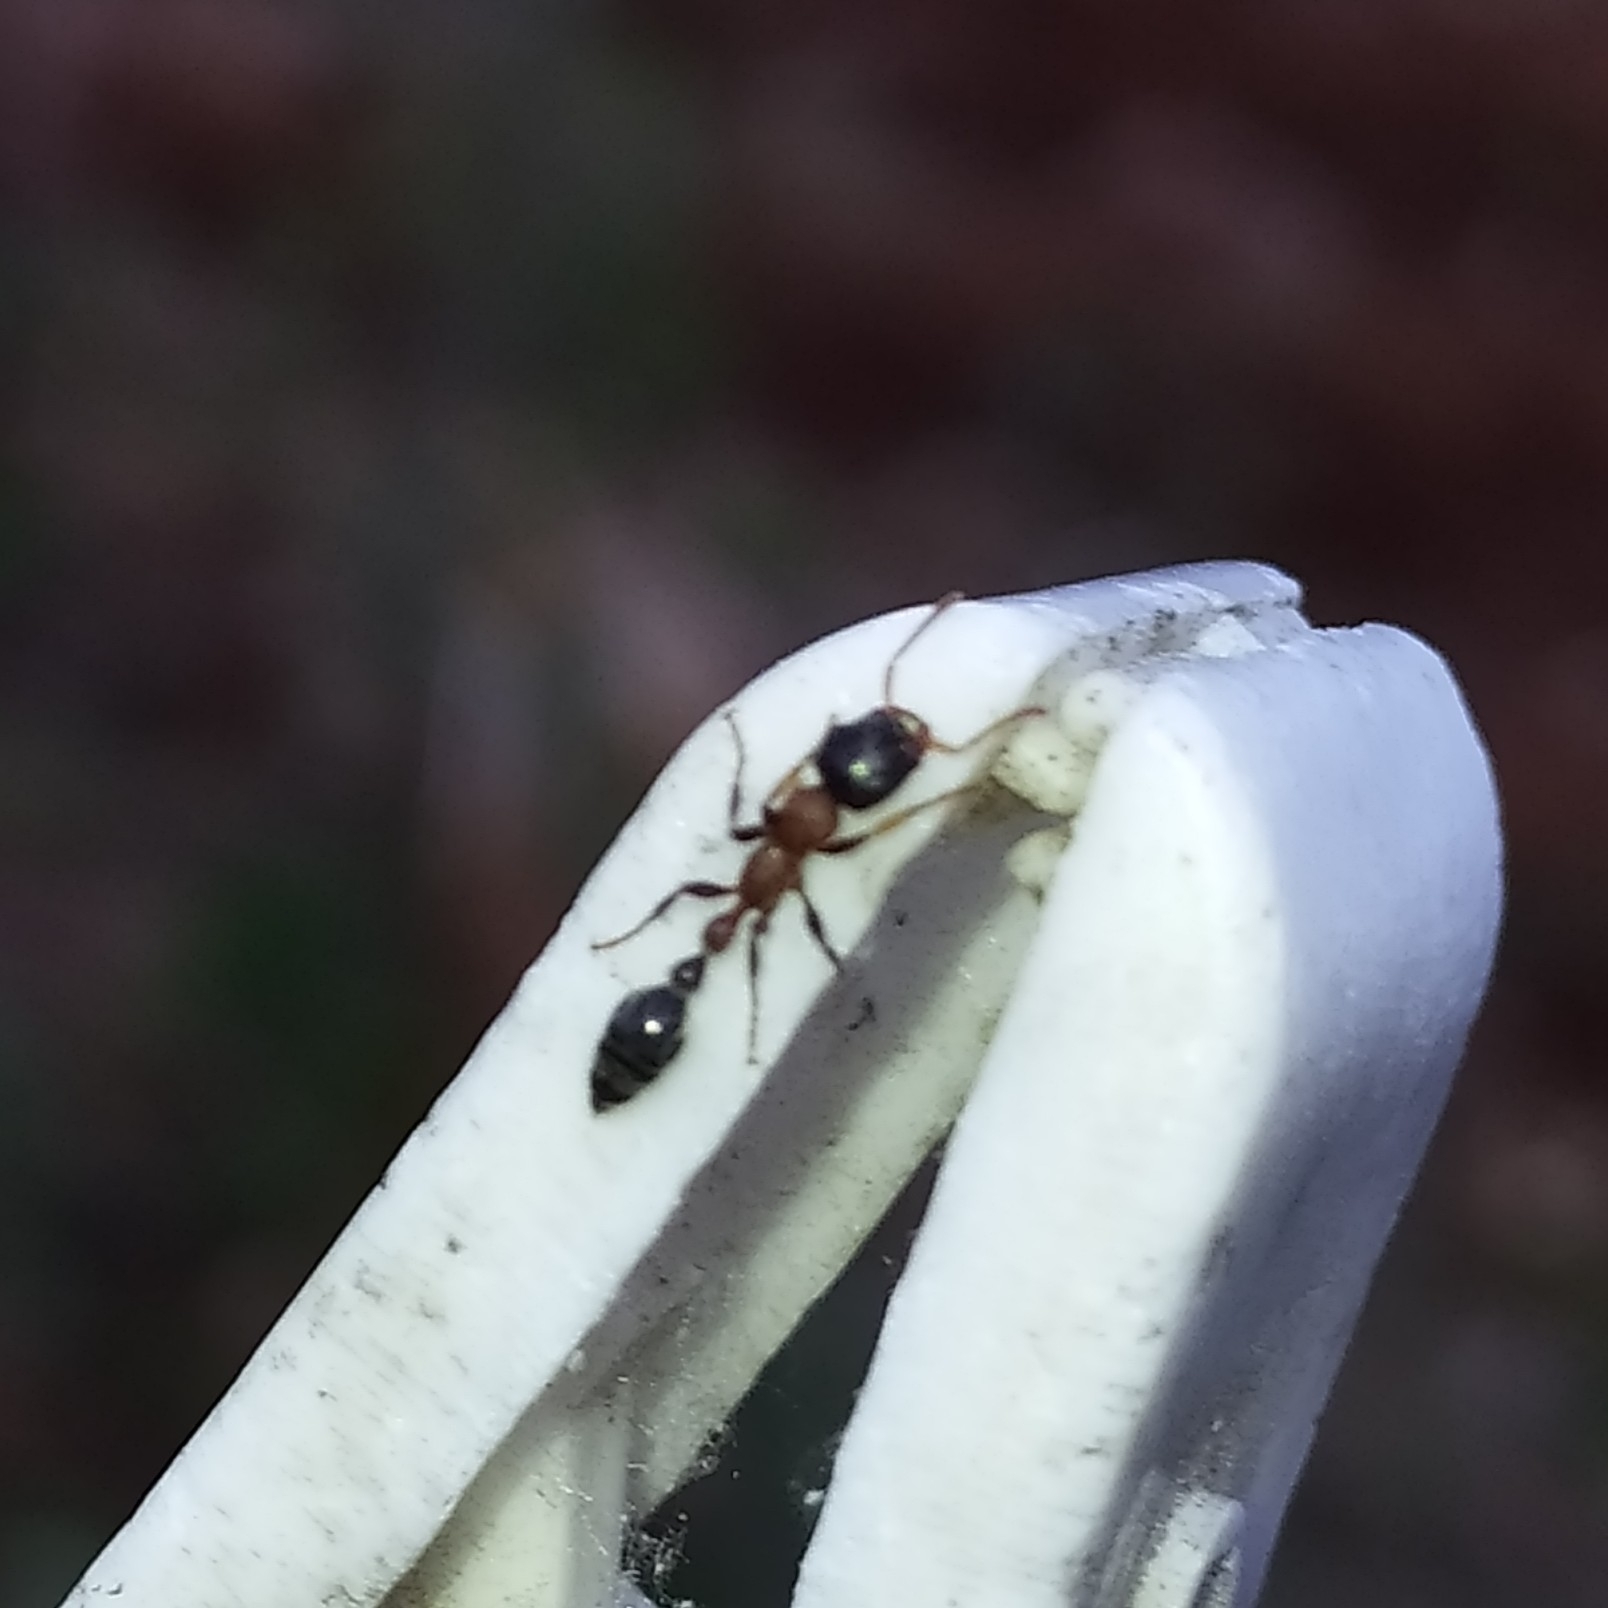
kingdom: Animalia
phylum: Arthropoda
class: Insecta
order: Hymenoptera
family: Formicidae
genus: Tetraponera
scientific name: Tetraponera rufonigra
